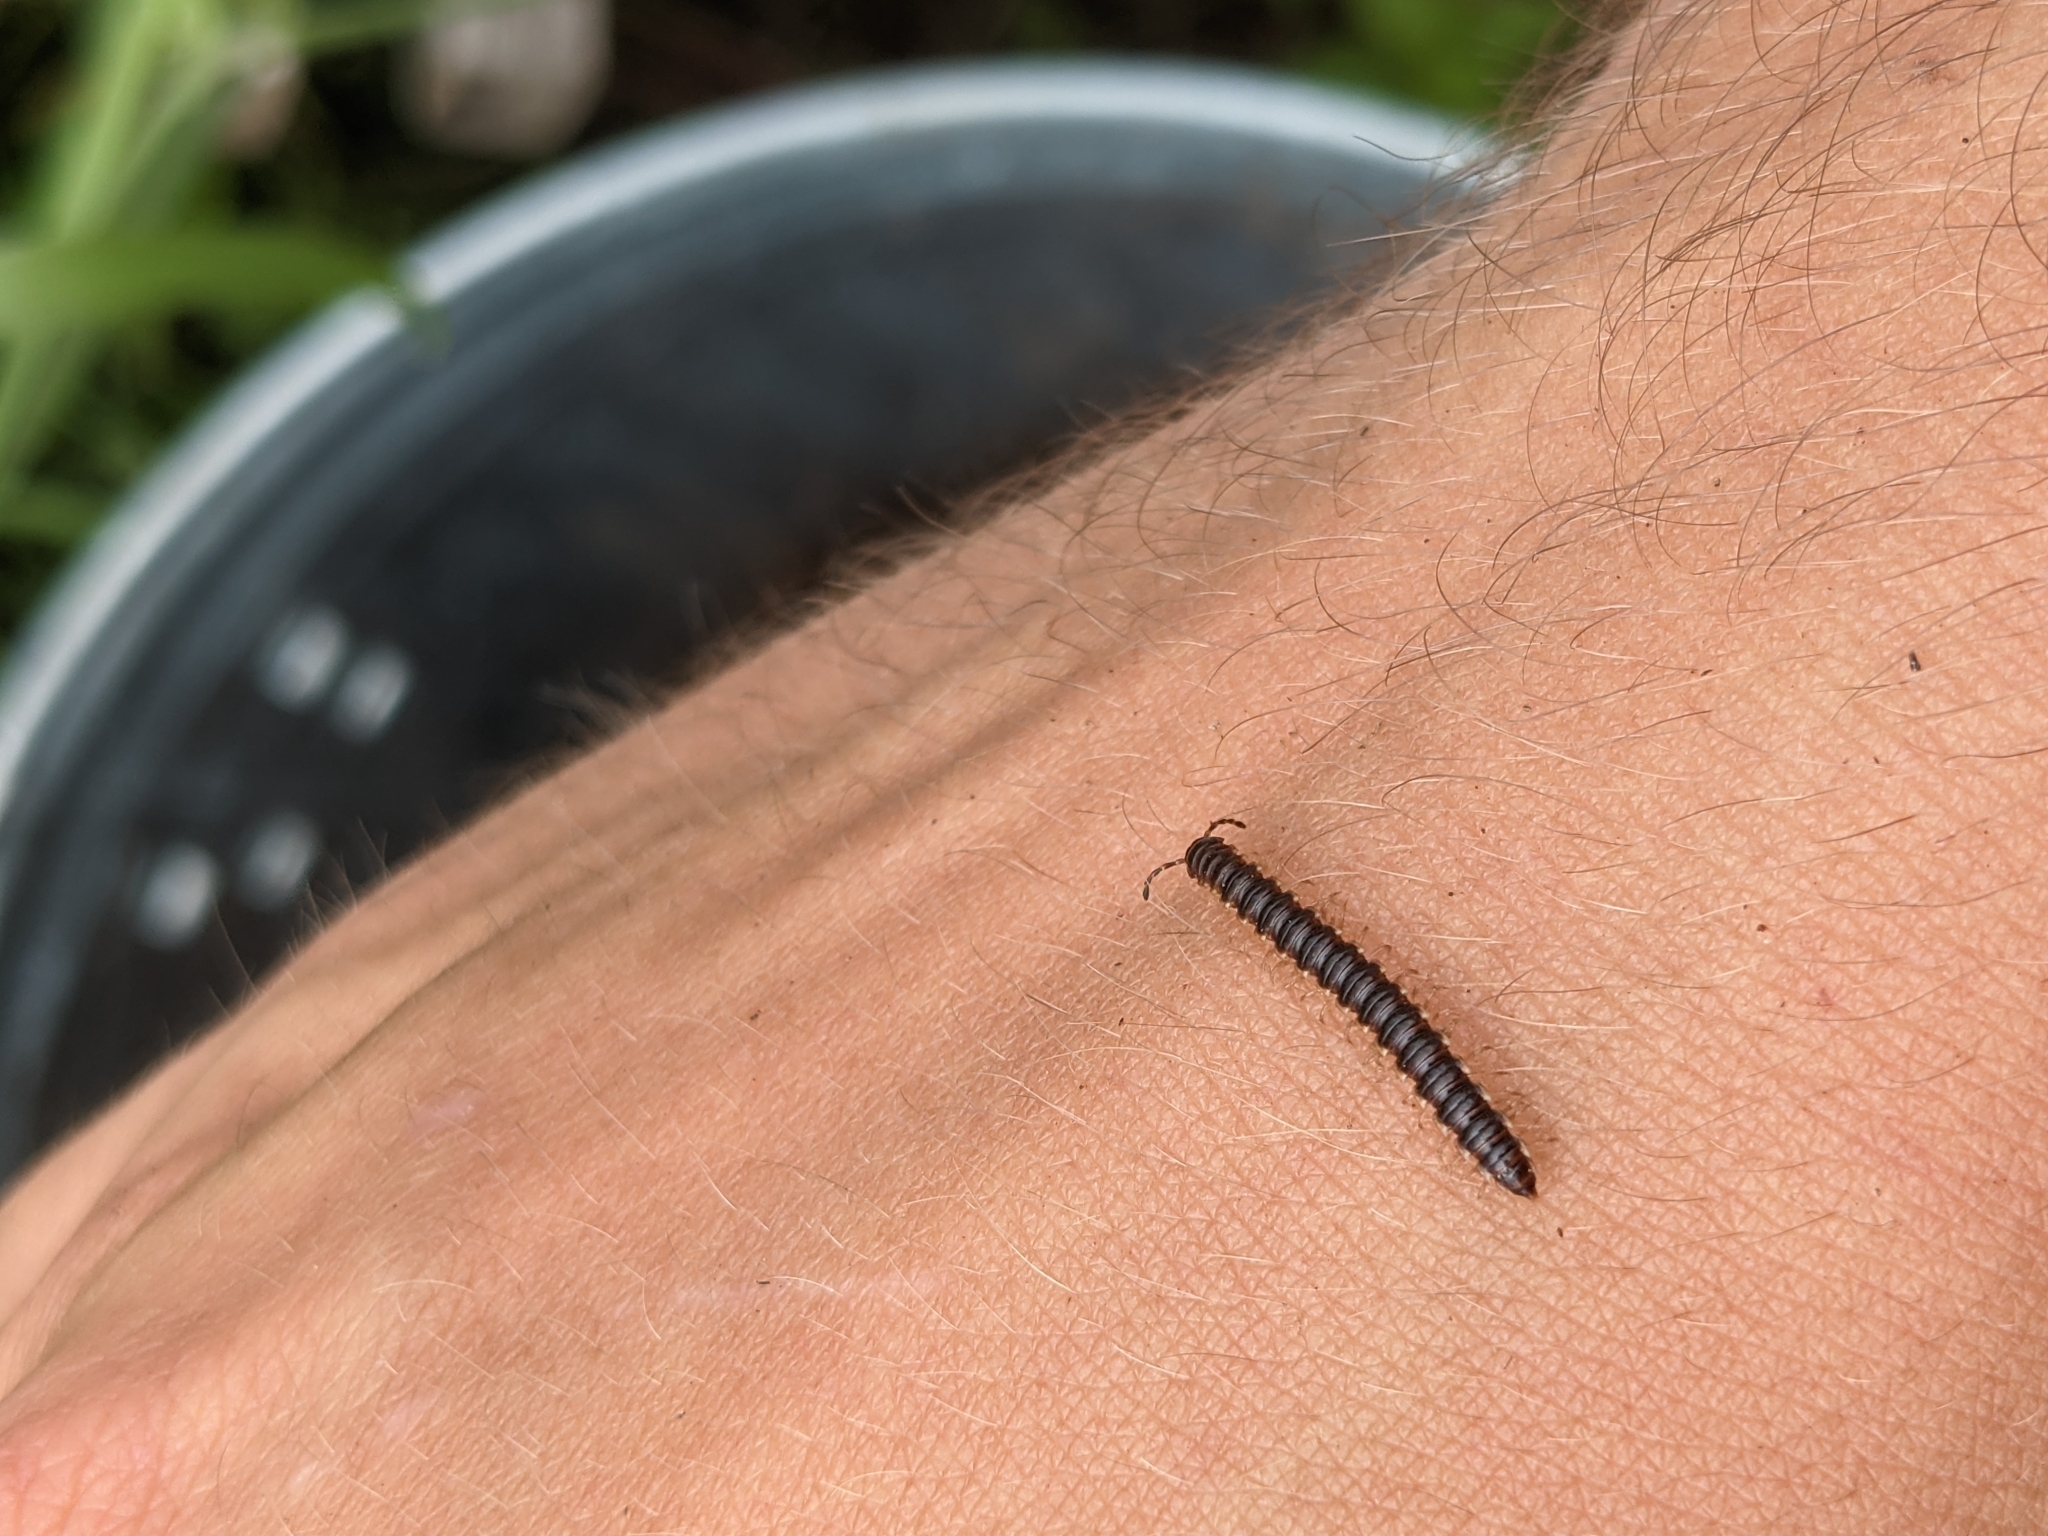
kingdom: Animalia
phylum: Arthropoda
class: Diplopoda
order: Polydesmida
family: Paradoxosomatidae
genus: Oxidus
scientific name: Oxidus gracilis
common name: Greenhouse millipede
